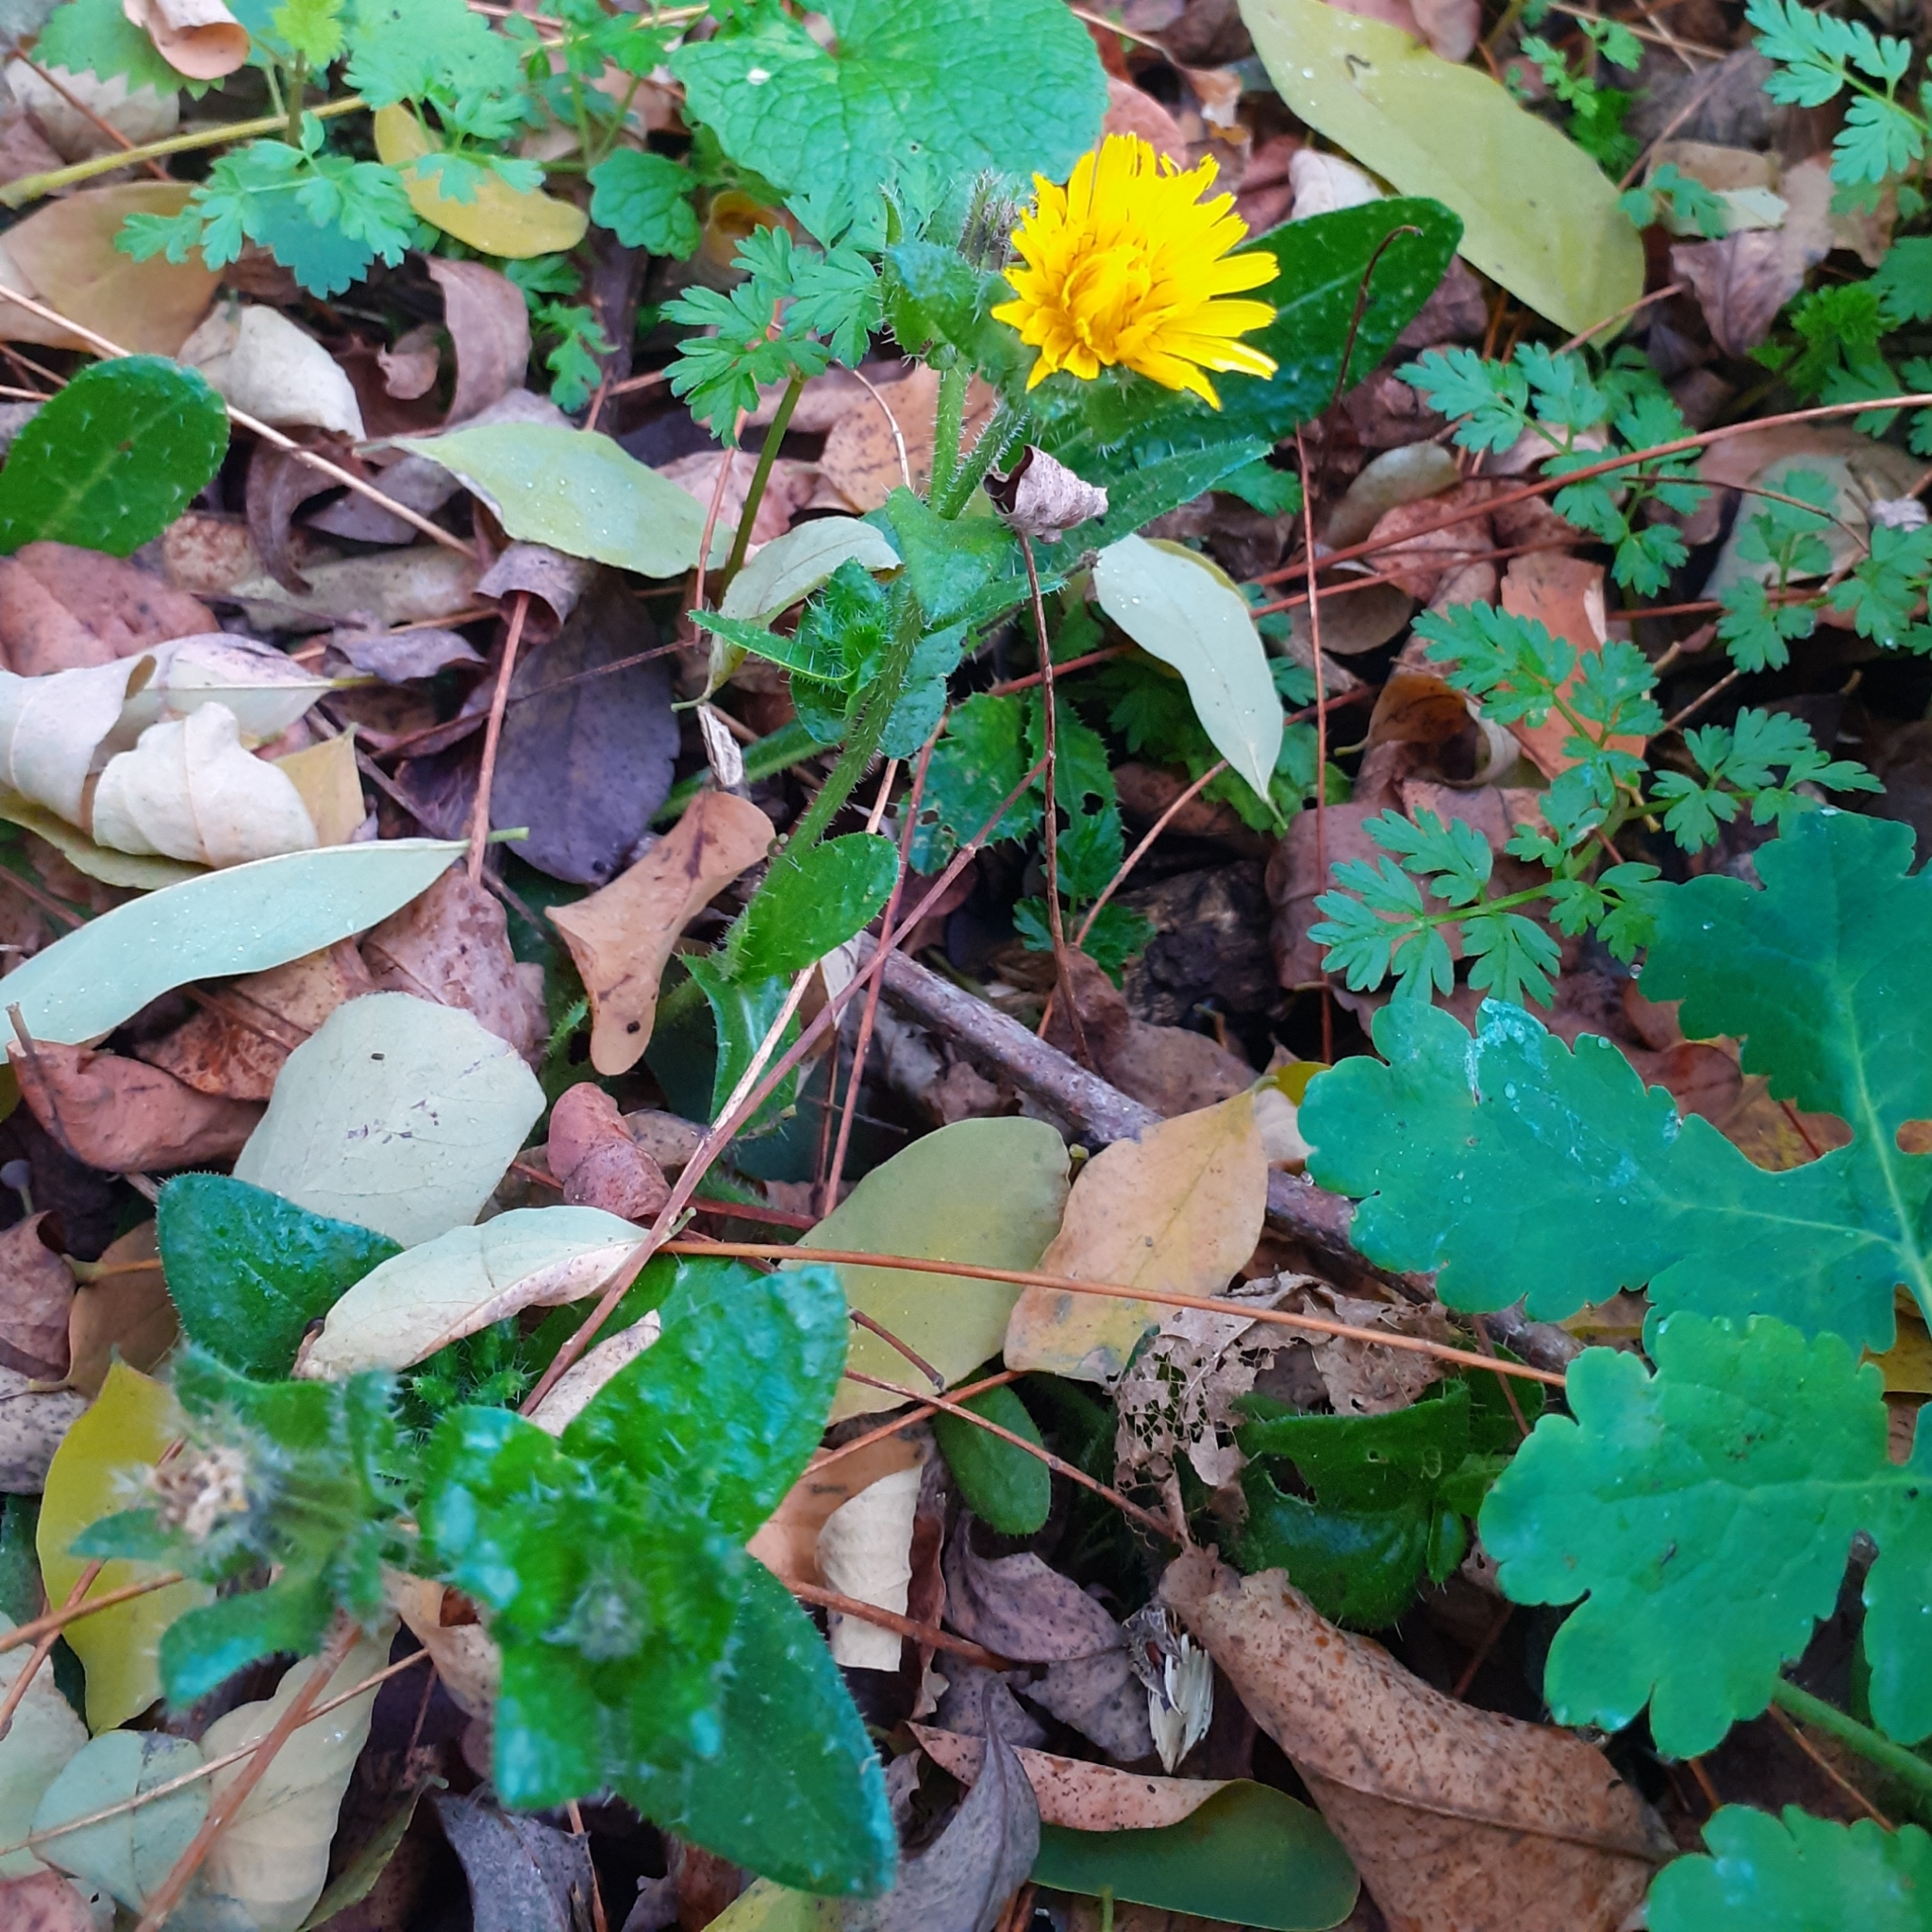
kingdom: Plantae
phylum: Tracheophyta
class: Magnoliopsida
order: Asterales
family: Asteraceae
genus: Helminthotheca
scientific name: Helminthotheca echioides
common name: Ox-tongue
